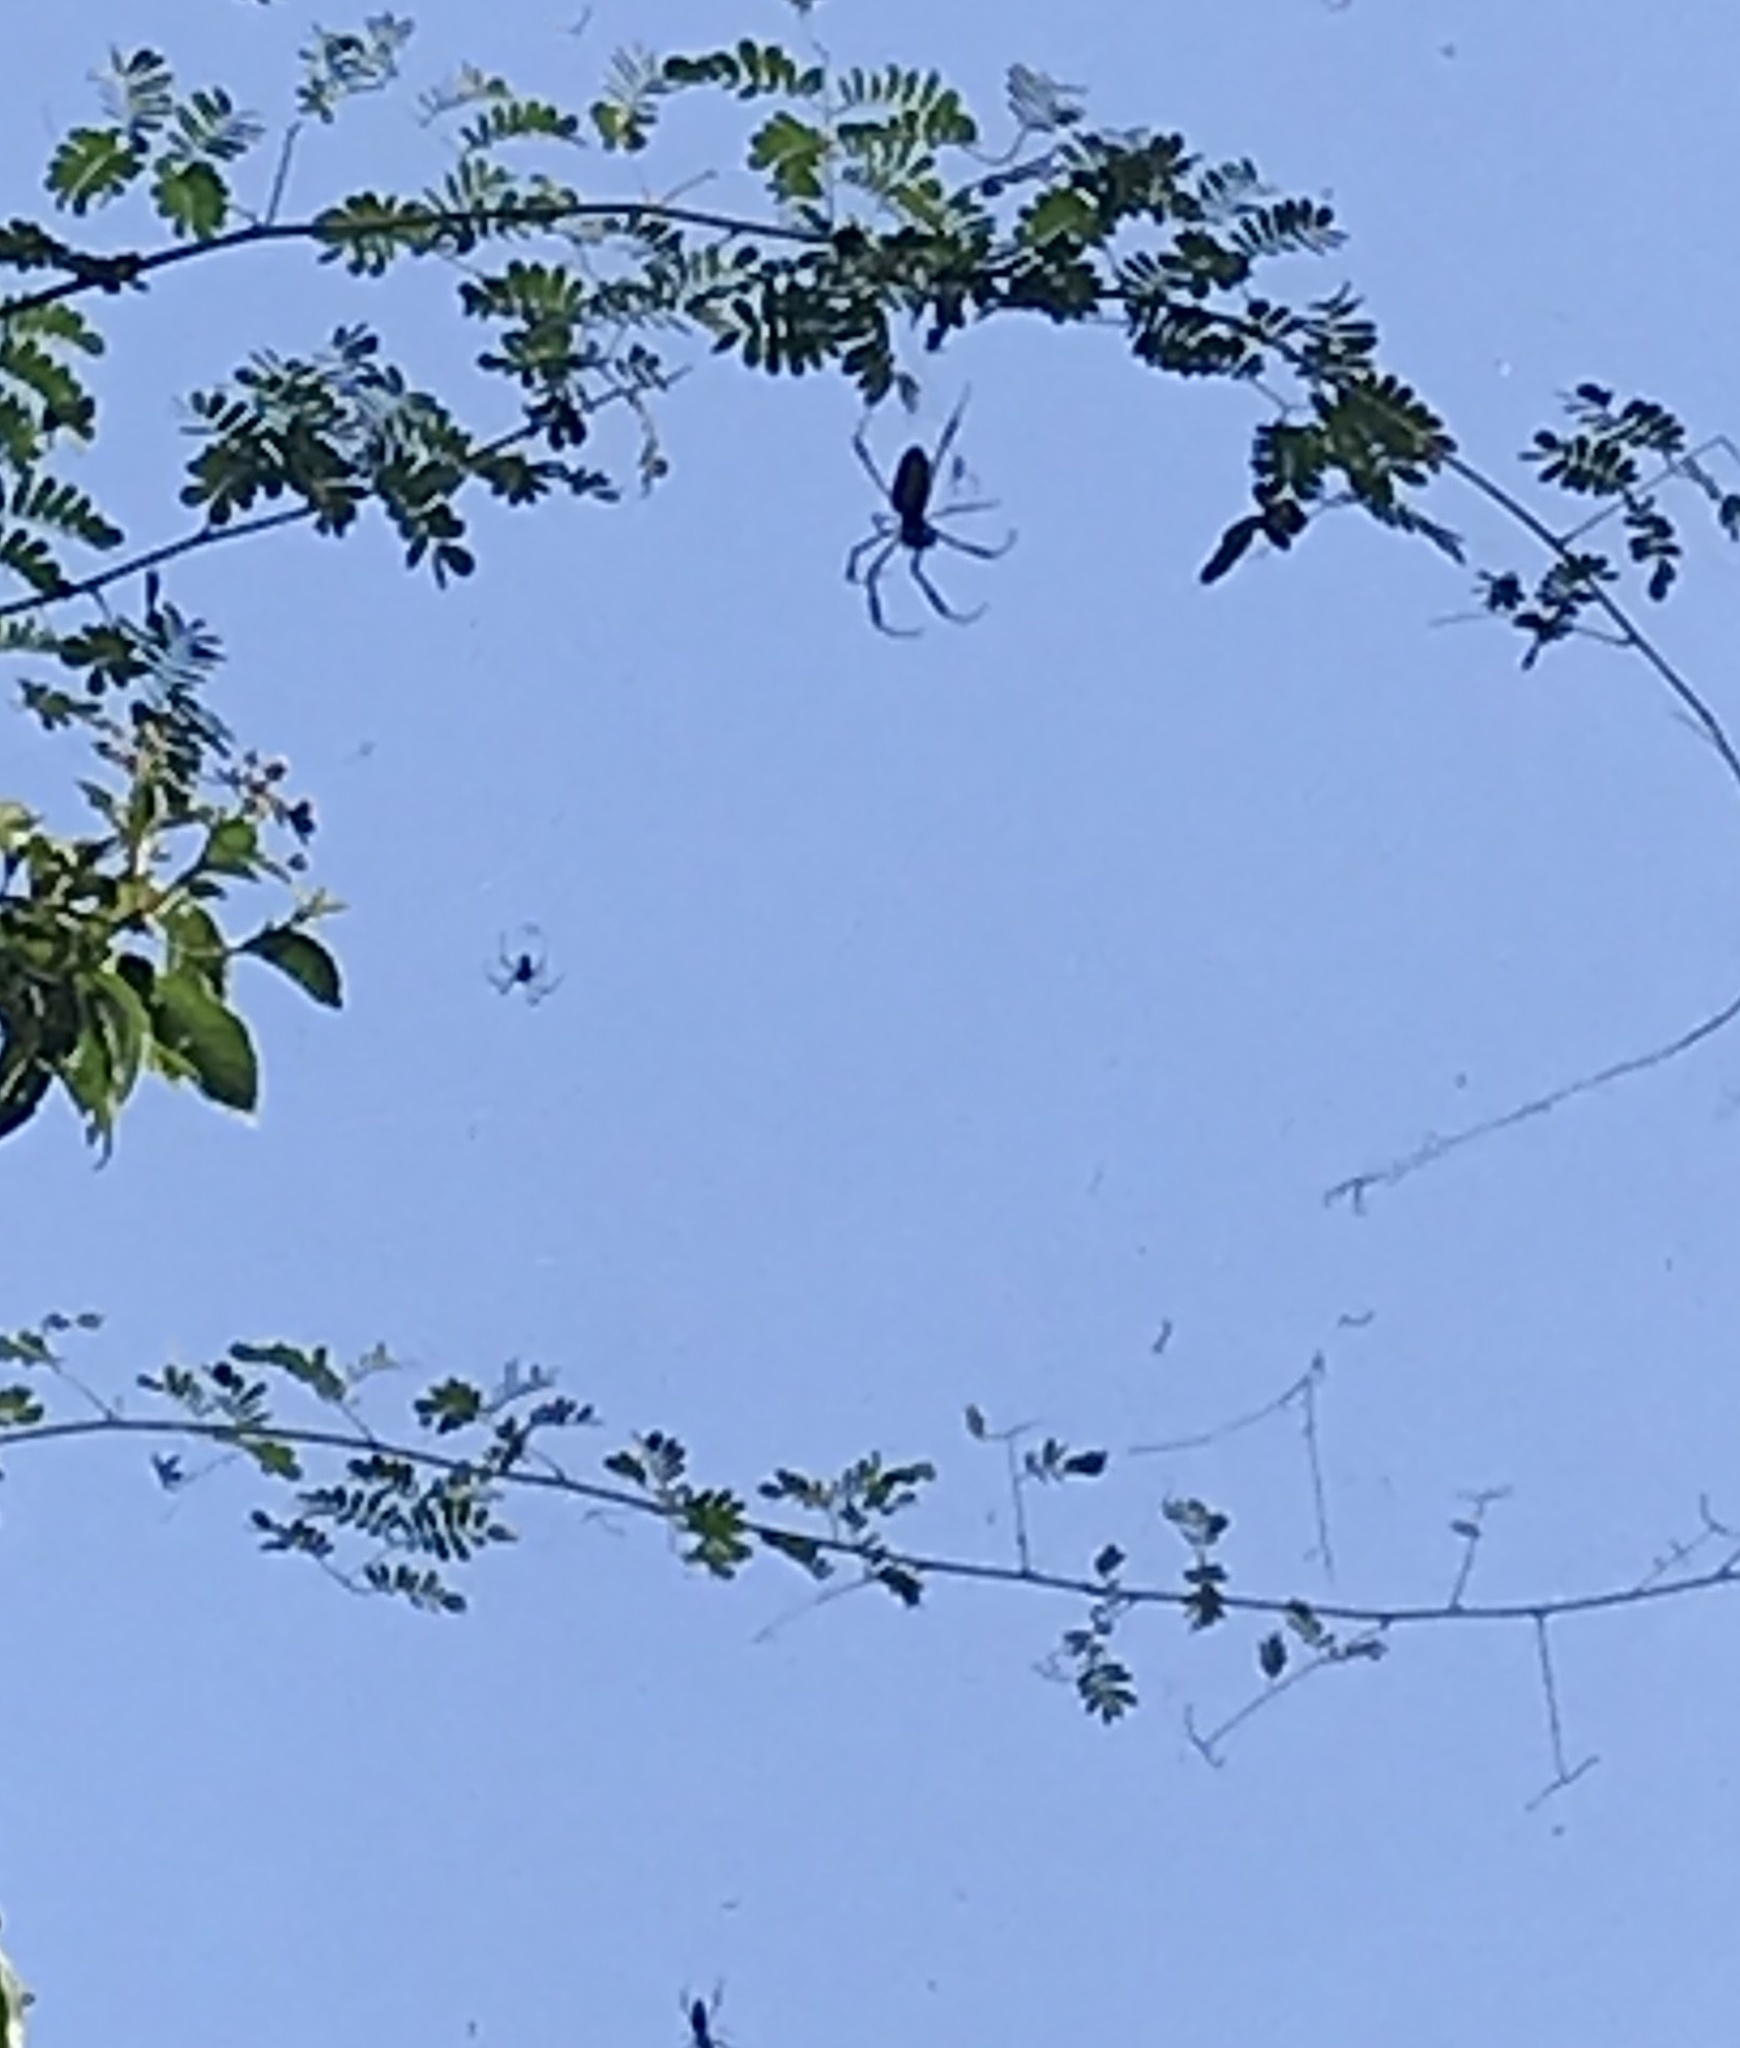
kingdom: Animalia
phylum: Arthropoda
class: Arachnida
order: Araneae
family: Araneidae
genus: Trichonephila
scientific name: Trichonephila clavipes
